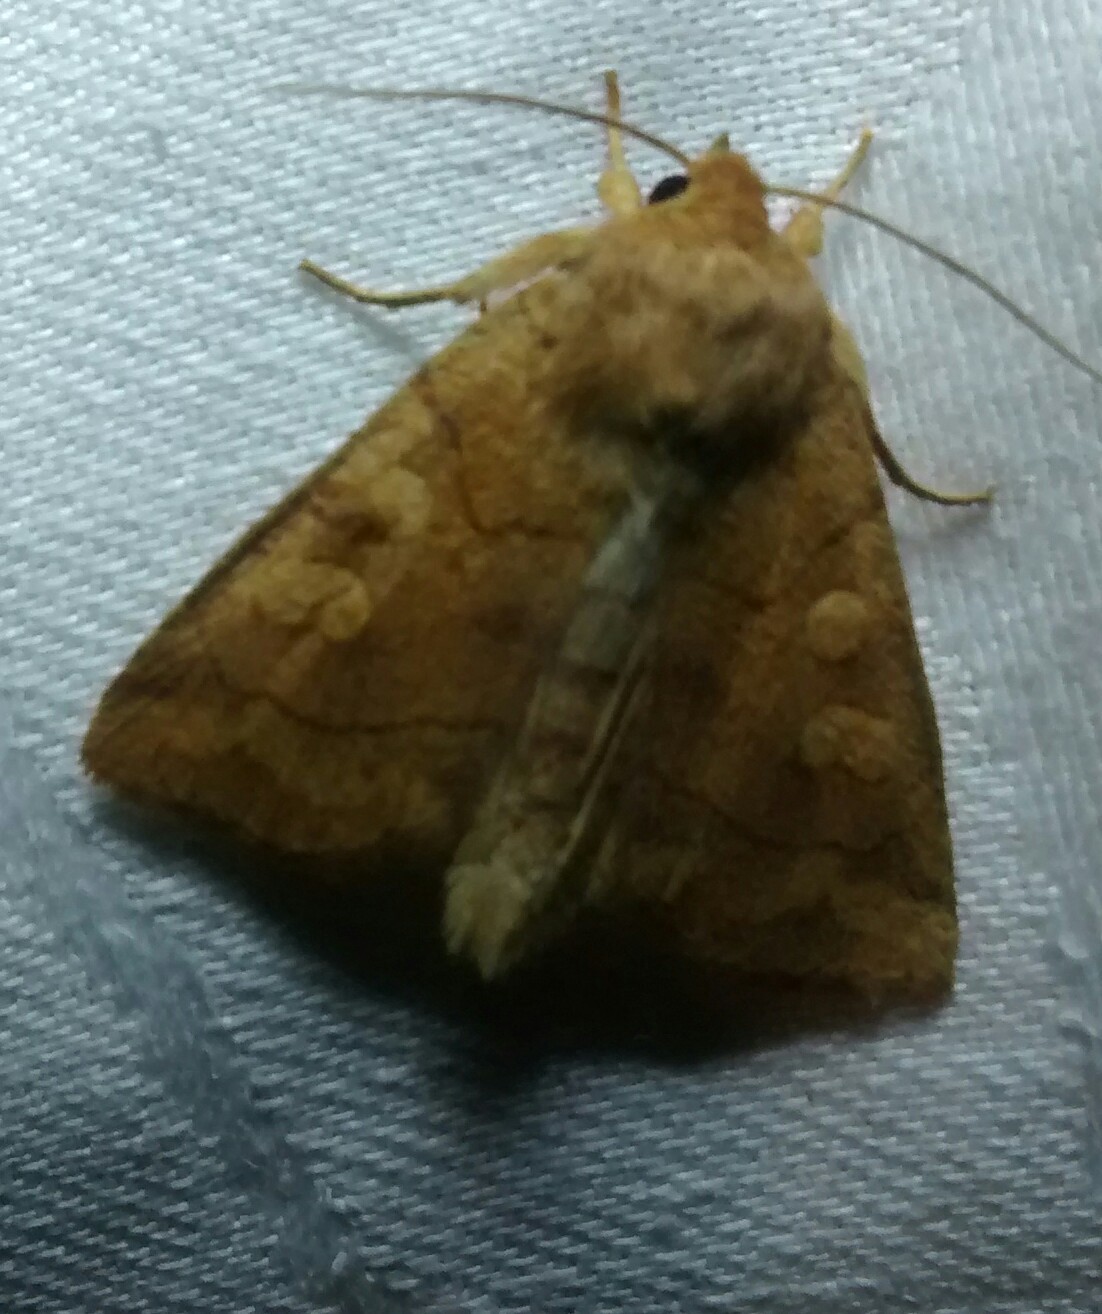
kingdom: Animalia
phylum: Arthropoda
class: Insecta
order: Lepidoptera
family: Noctuidae
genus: Enargia
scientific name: Enargia decolor
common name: Aspen twoleaf tier moth
